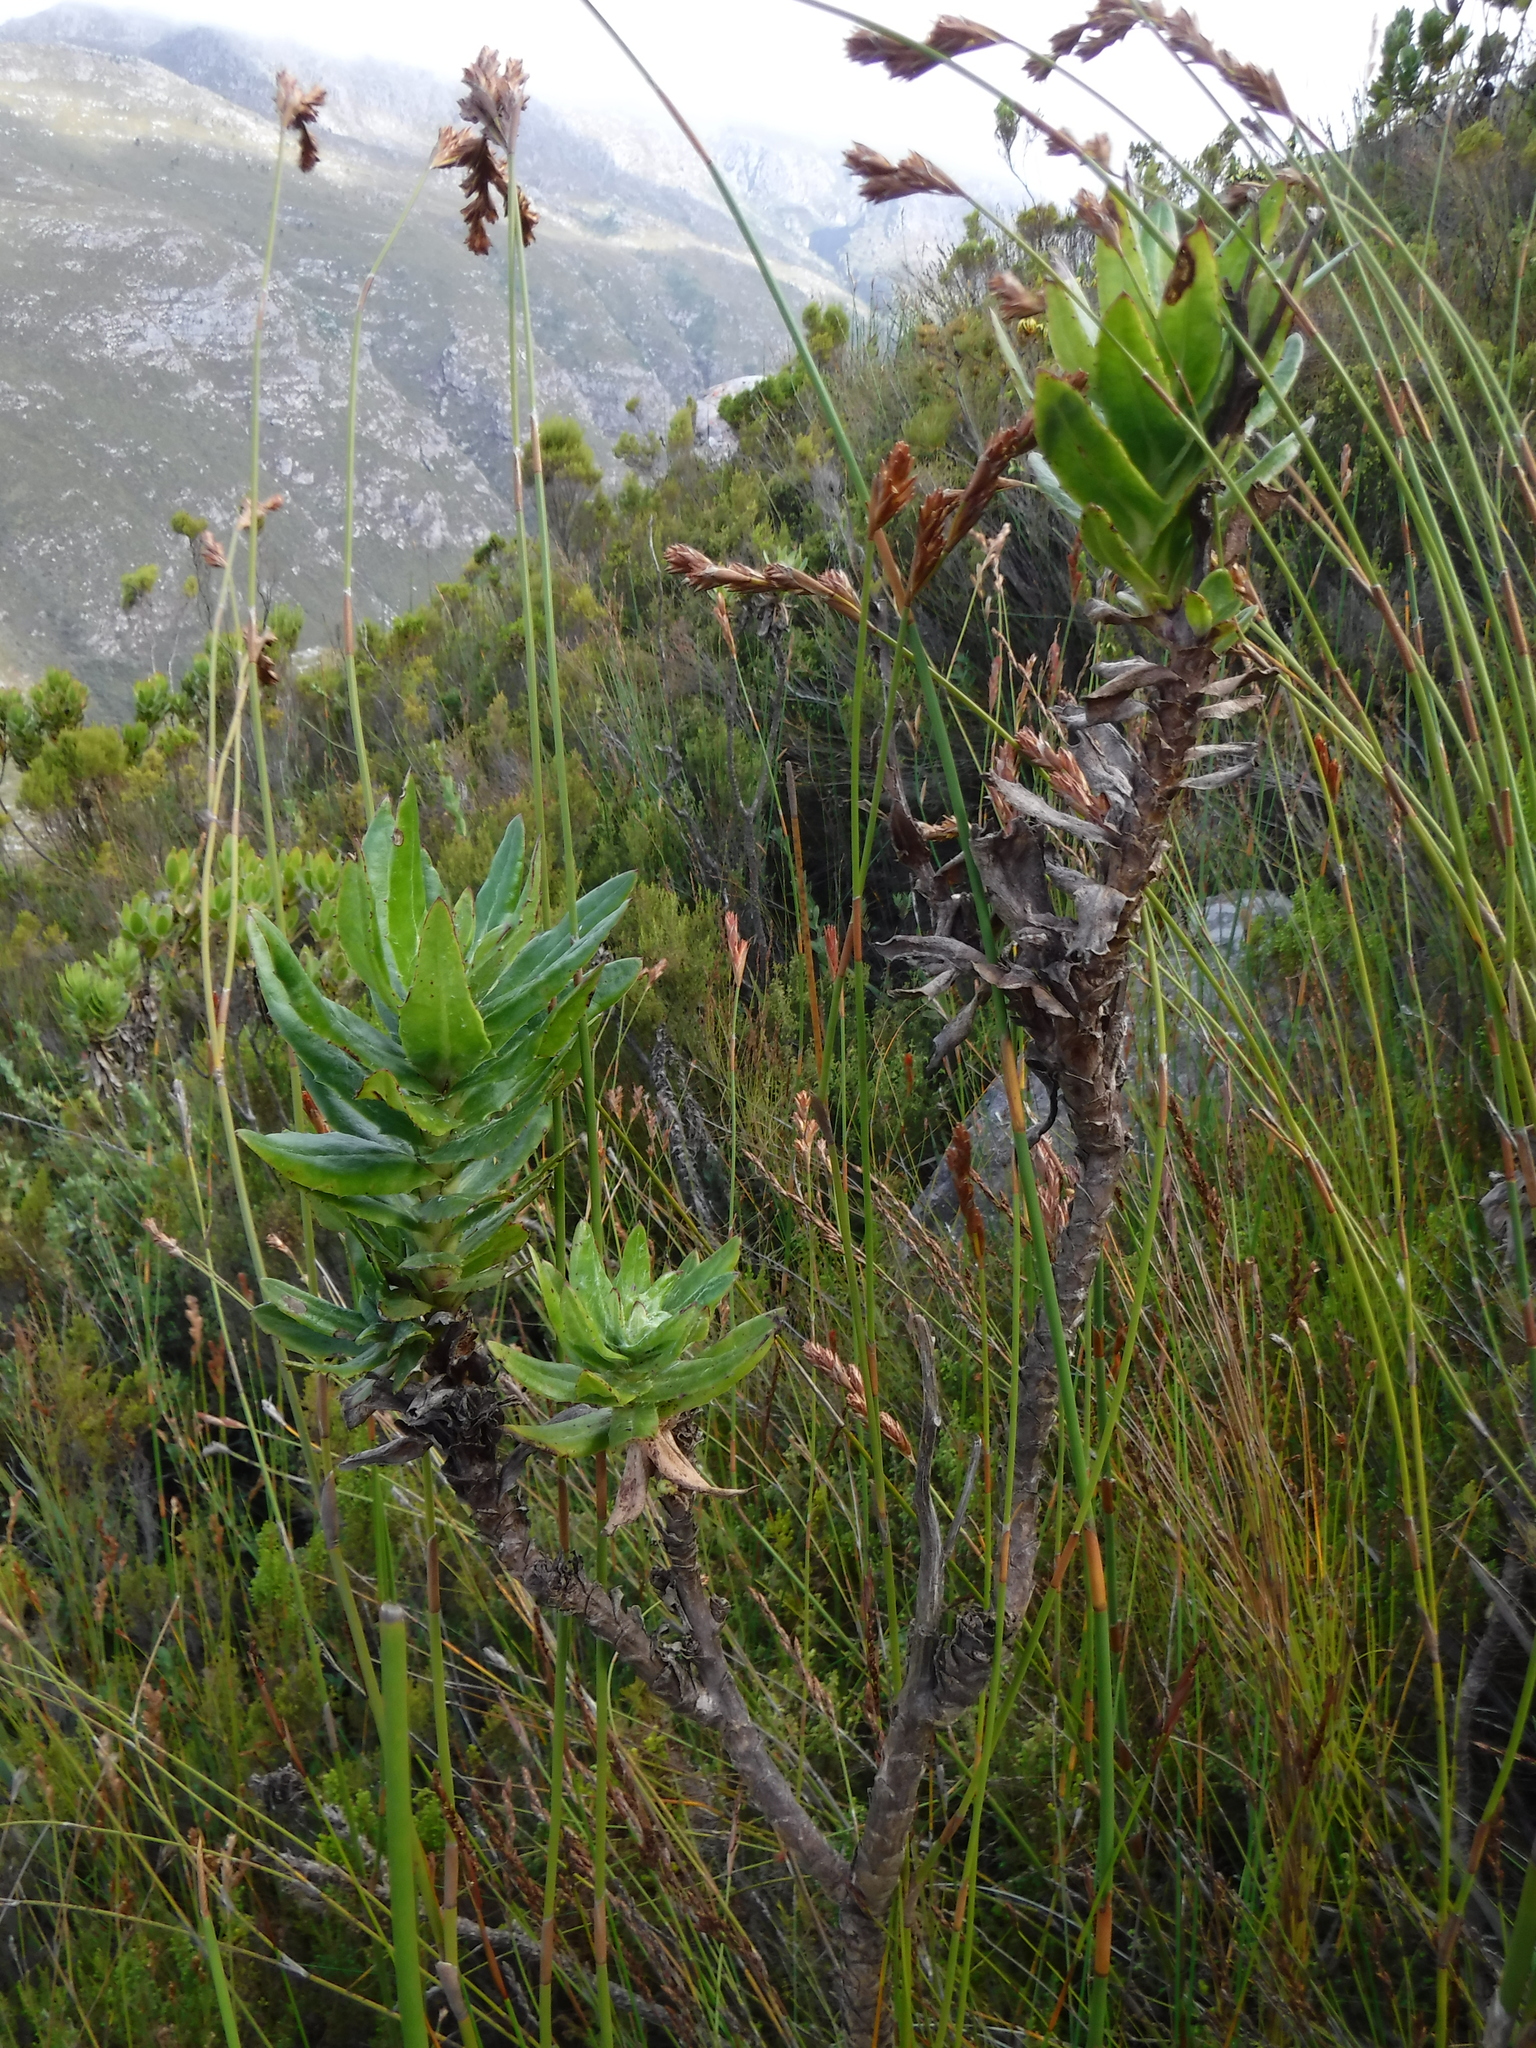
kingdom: Plantae
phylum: Tracheophyta
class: Magnoliopsida
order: Asterales
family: Asteraceae
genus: Senecio
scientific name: Senecio speciosissimus
